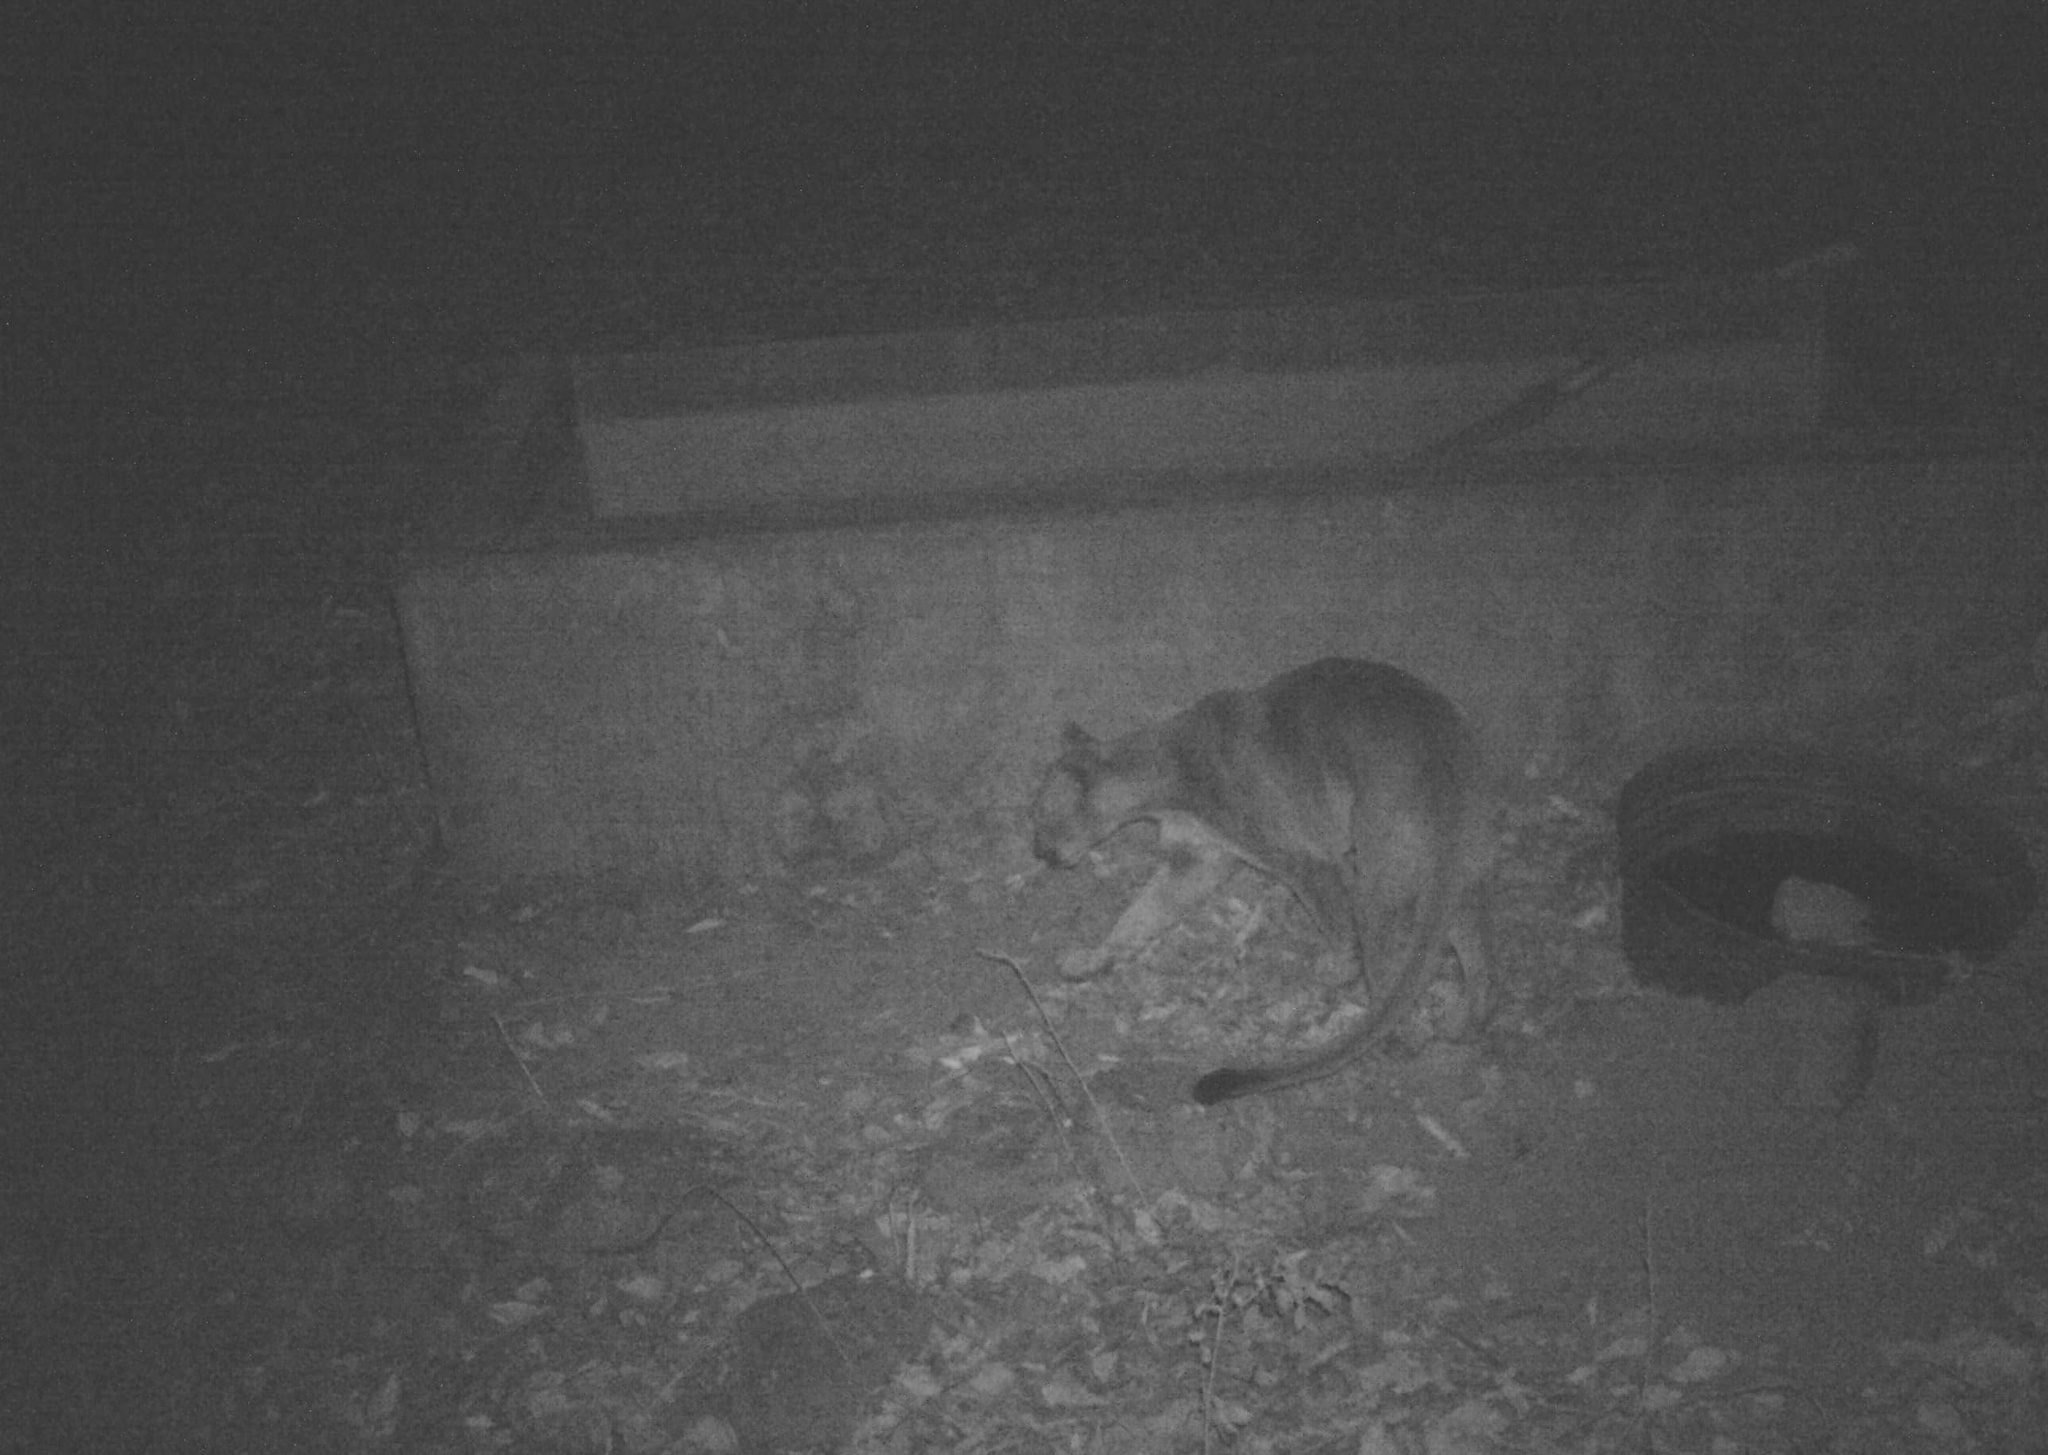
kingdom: Animalia
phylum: Chordata
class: Mammalia
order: Carnivora
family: Felidae
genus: Puma
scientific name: Puma concolor
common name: Puma
